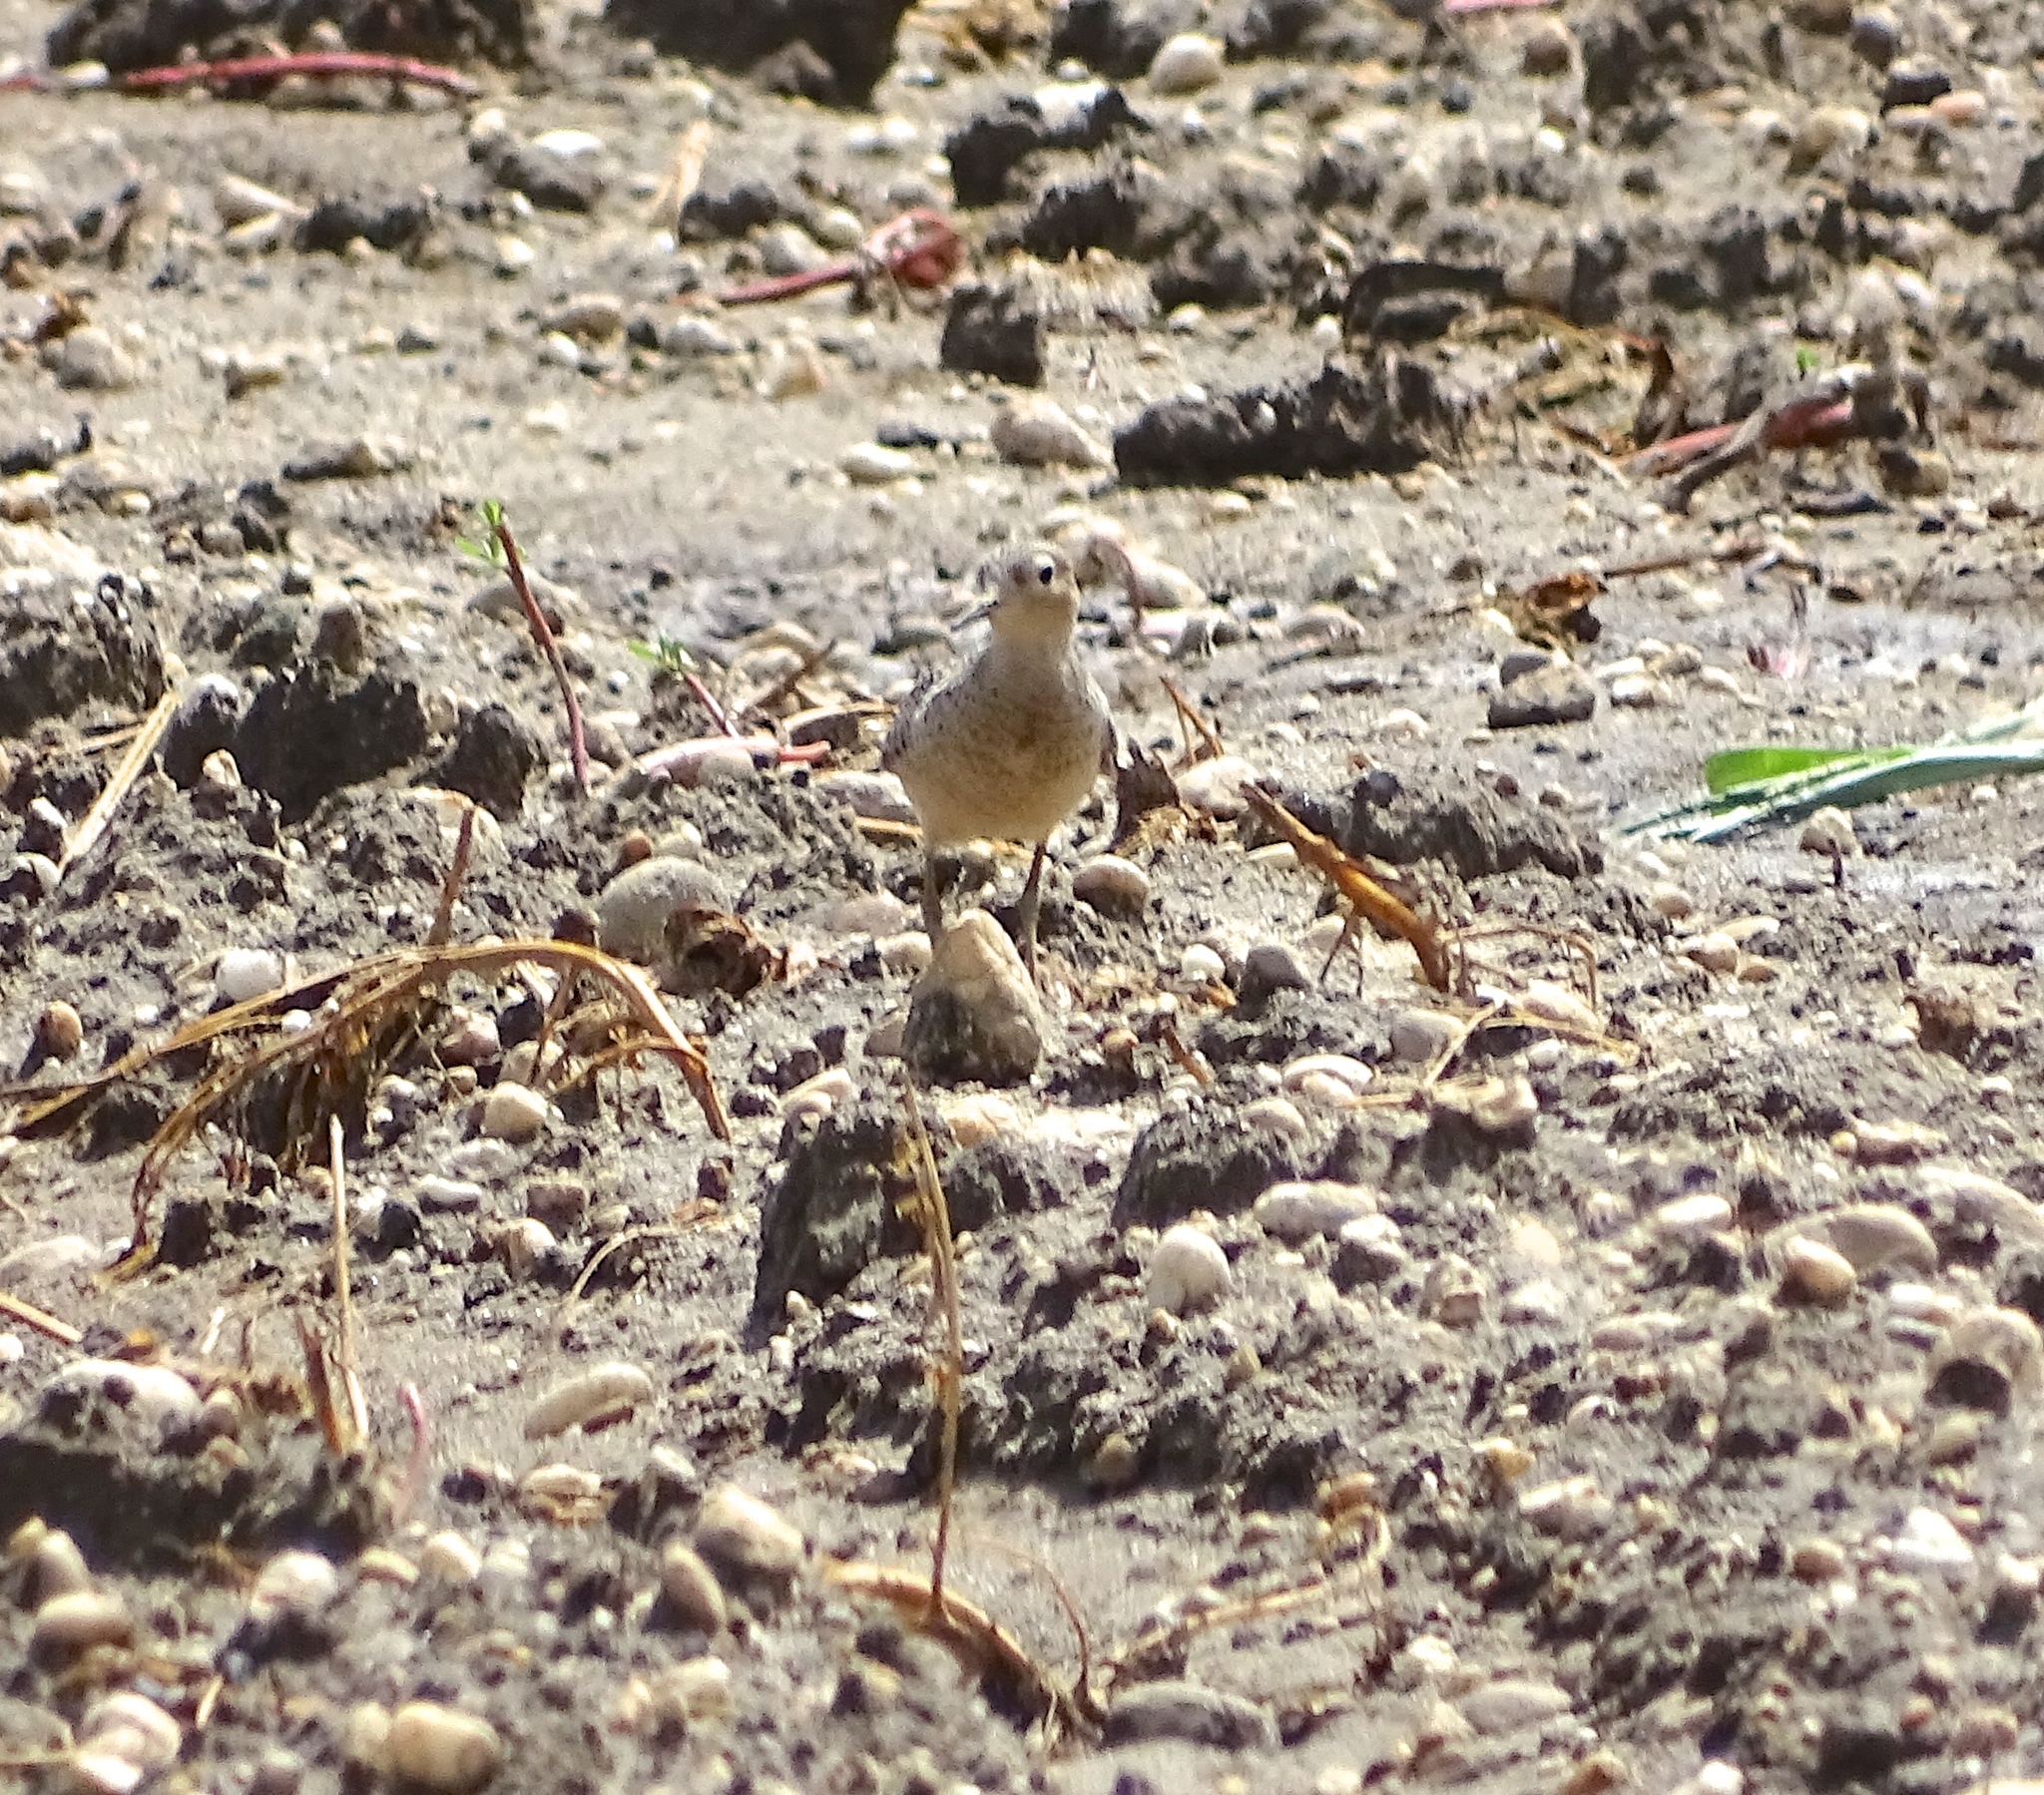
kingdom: Animalia
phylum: Chordata
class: Aves
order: Charadriiformes
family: Scolopacidae
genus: Calidris
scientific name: Calidris subruficollis
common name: Buff-breasted sandpiper
